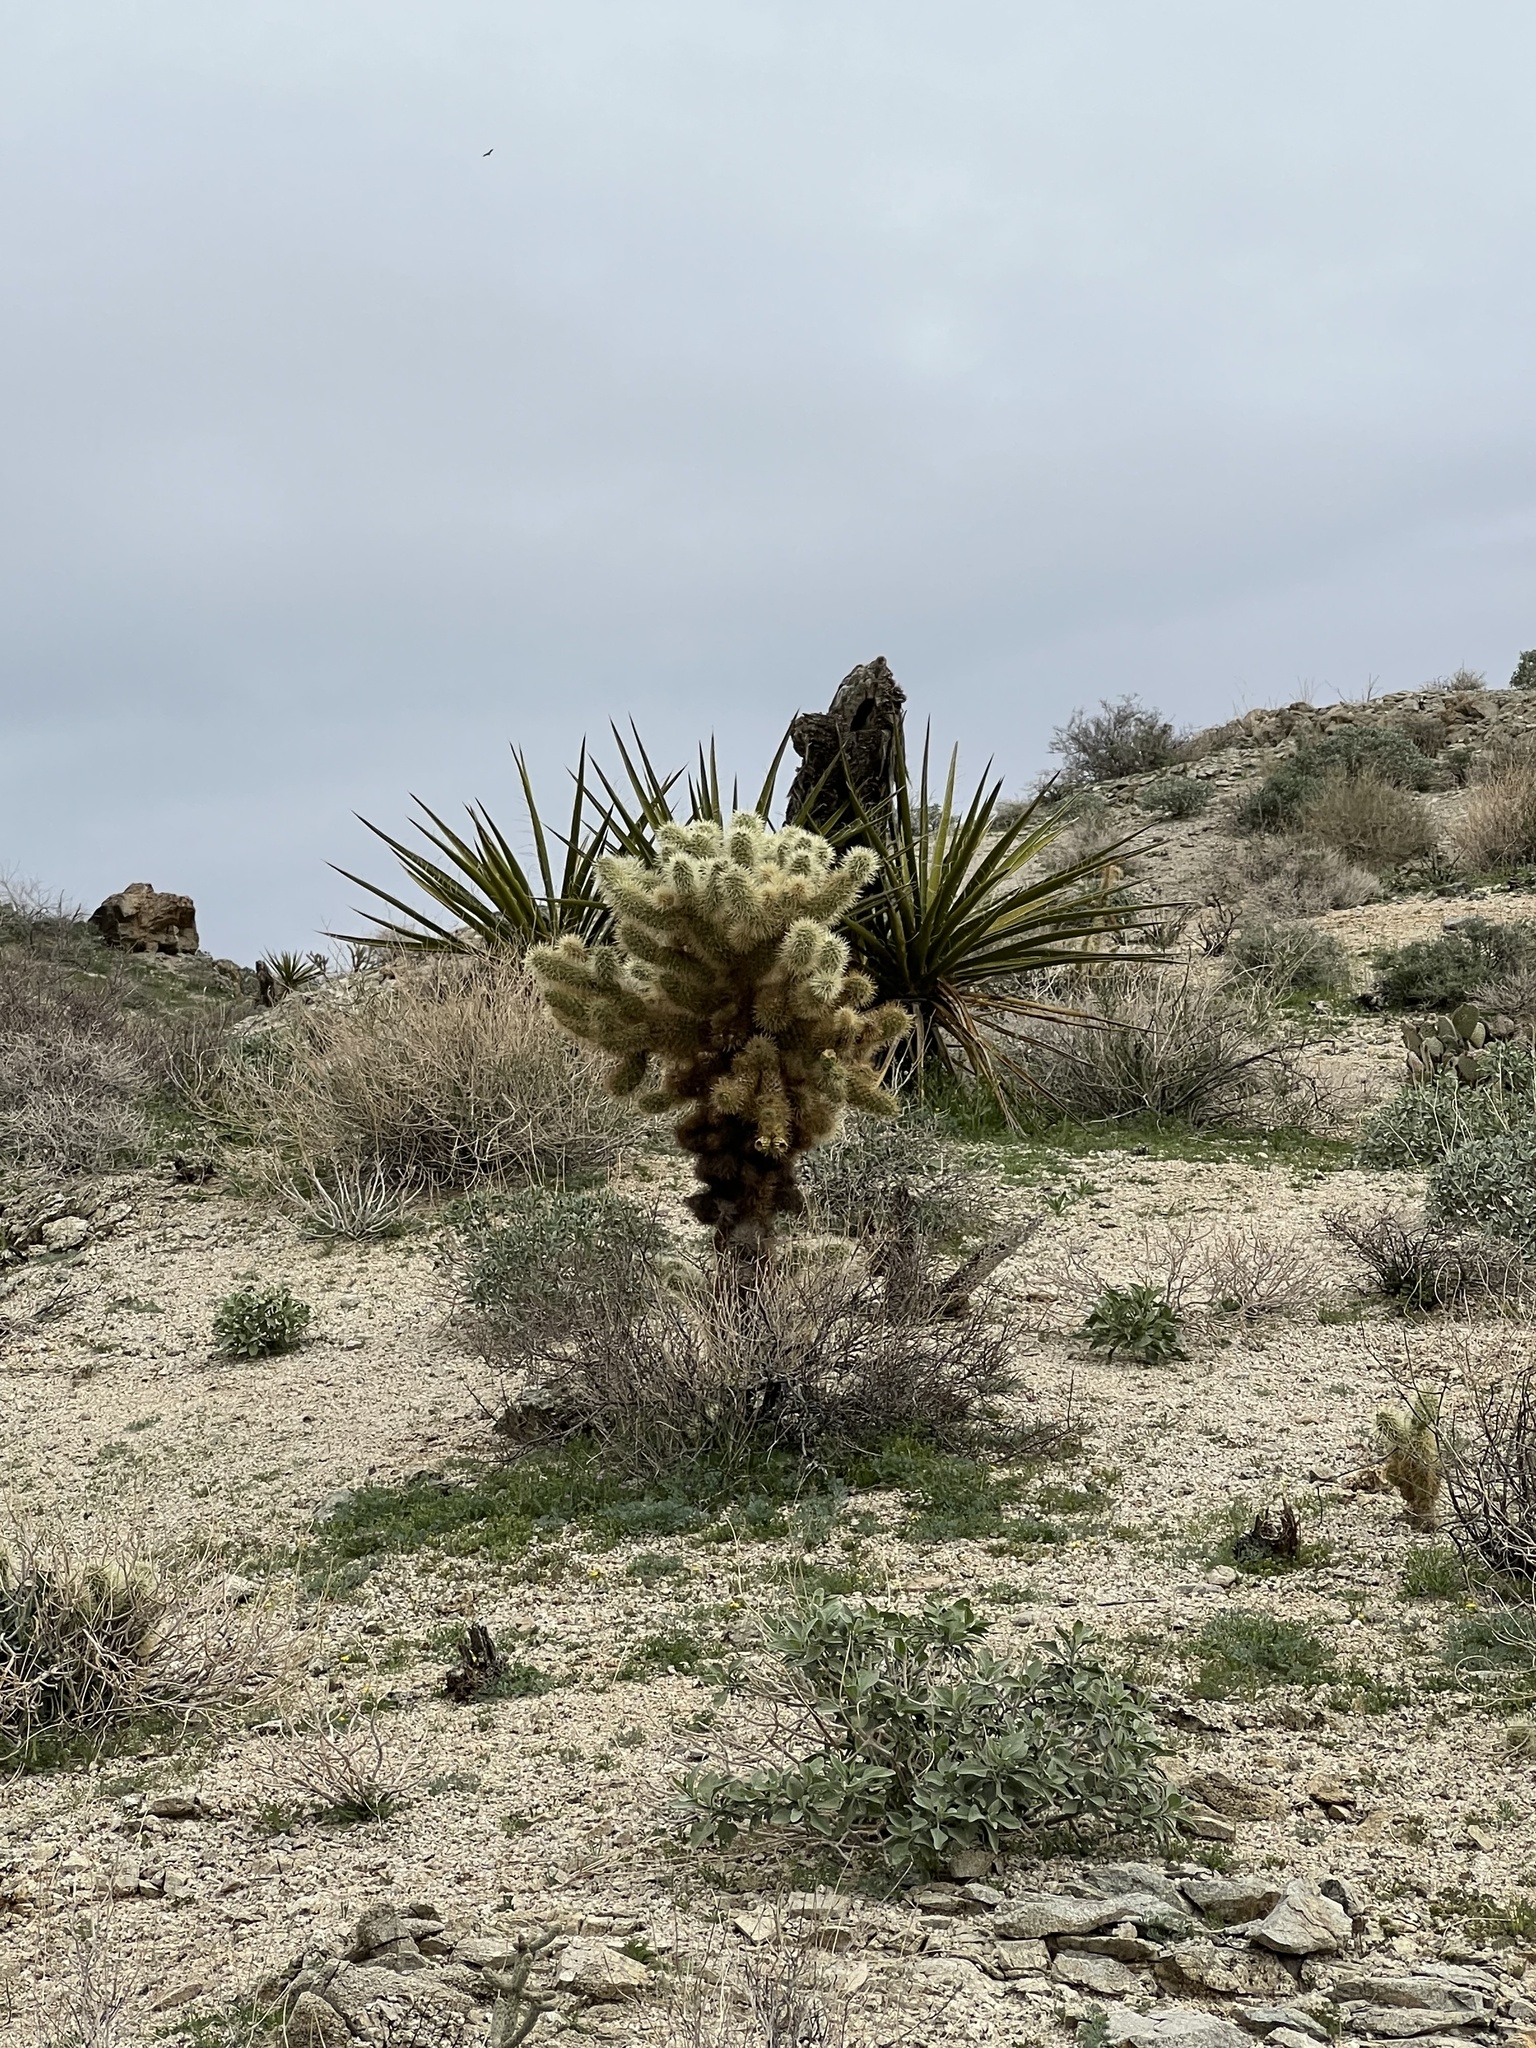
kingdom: Plantae
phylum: Tracheophyta
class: Magnoliopsida
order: Caryophyllales
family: Cactaceae
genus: Cylindropuntia
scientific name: Cylindropuntia fosbergii
